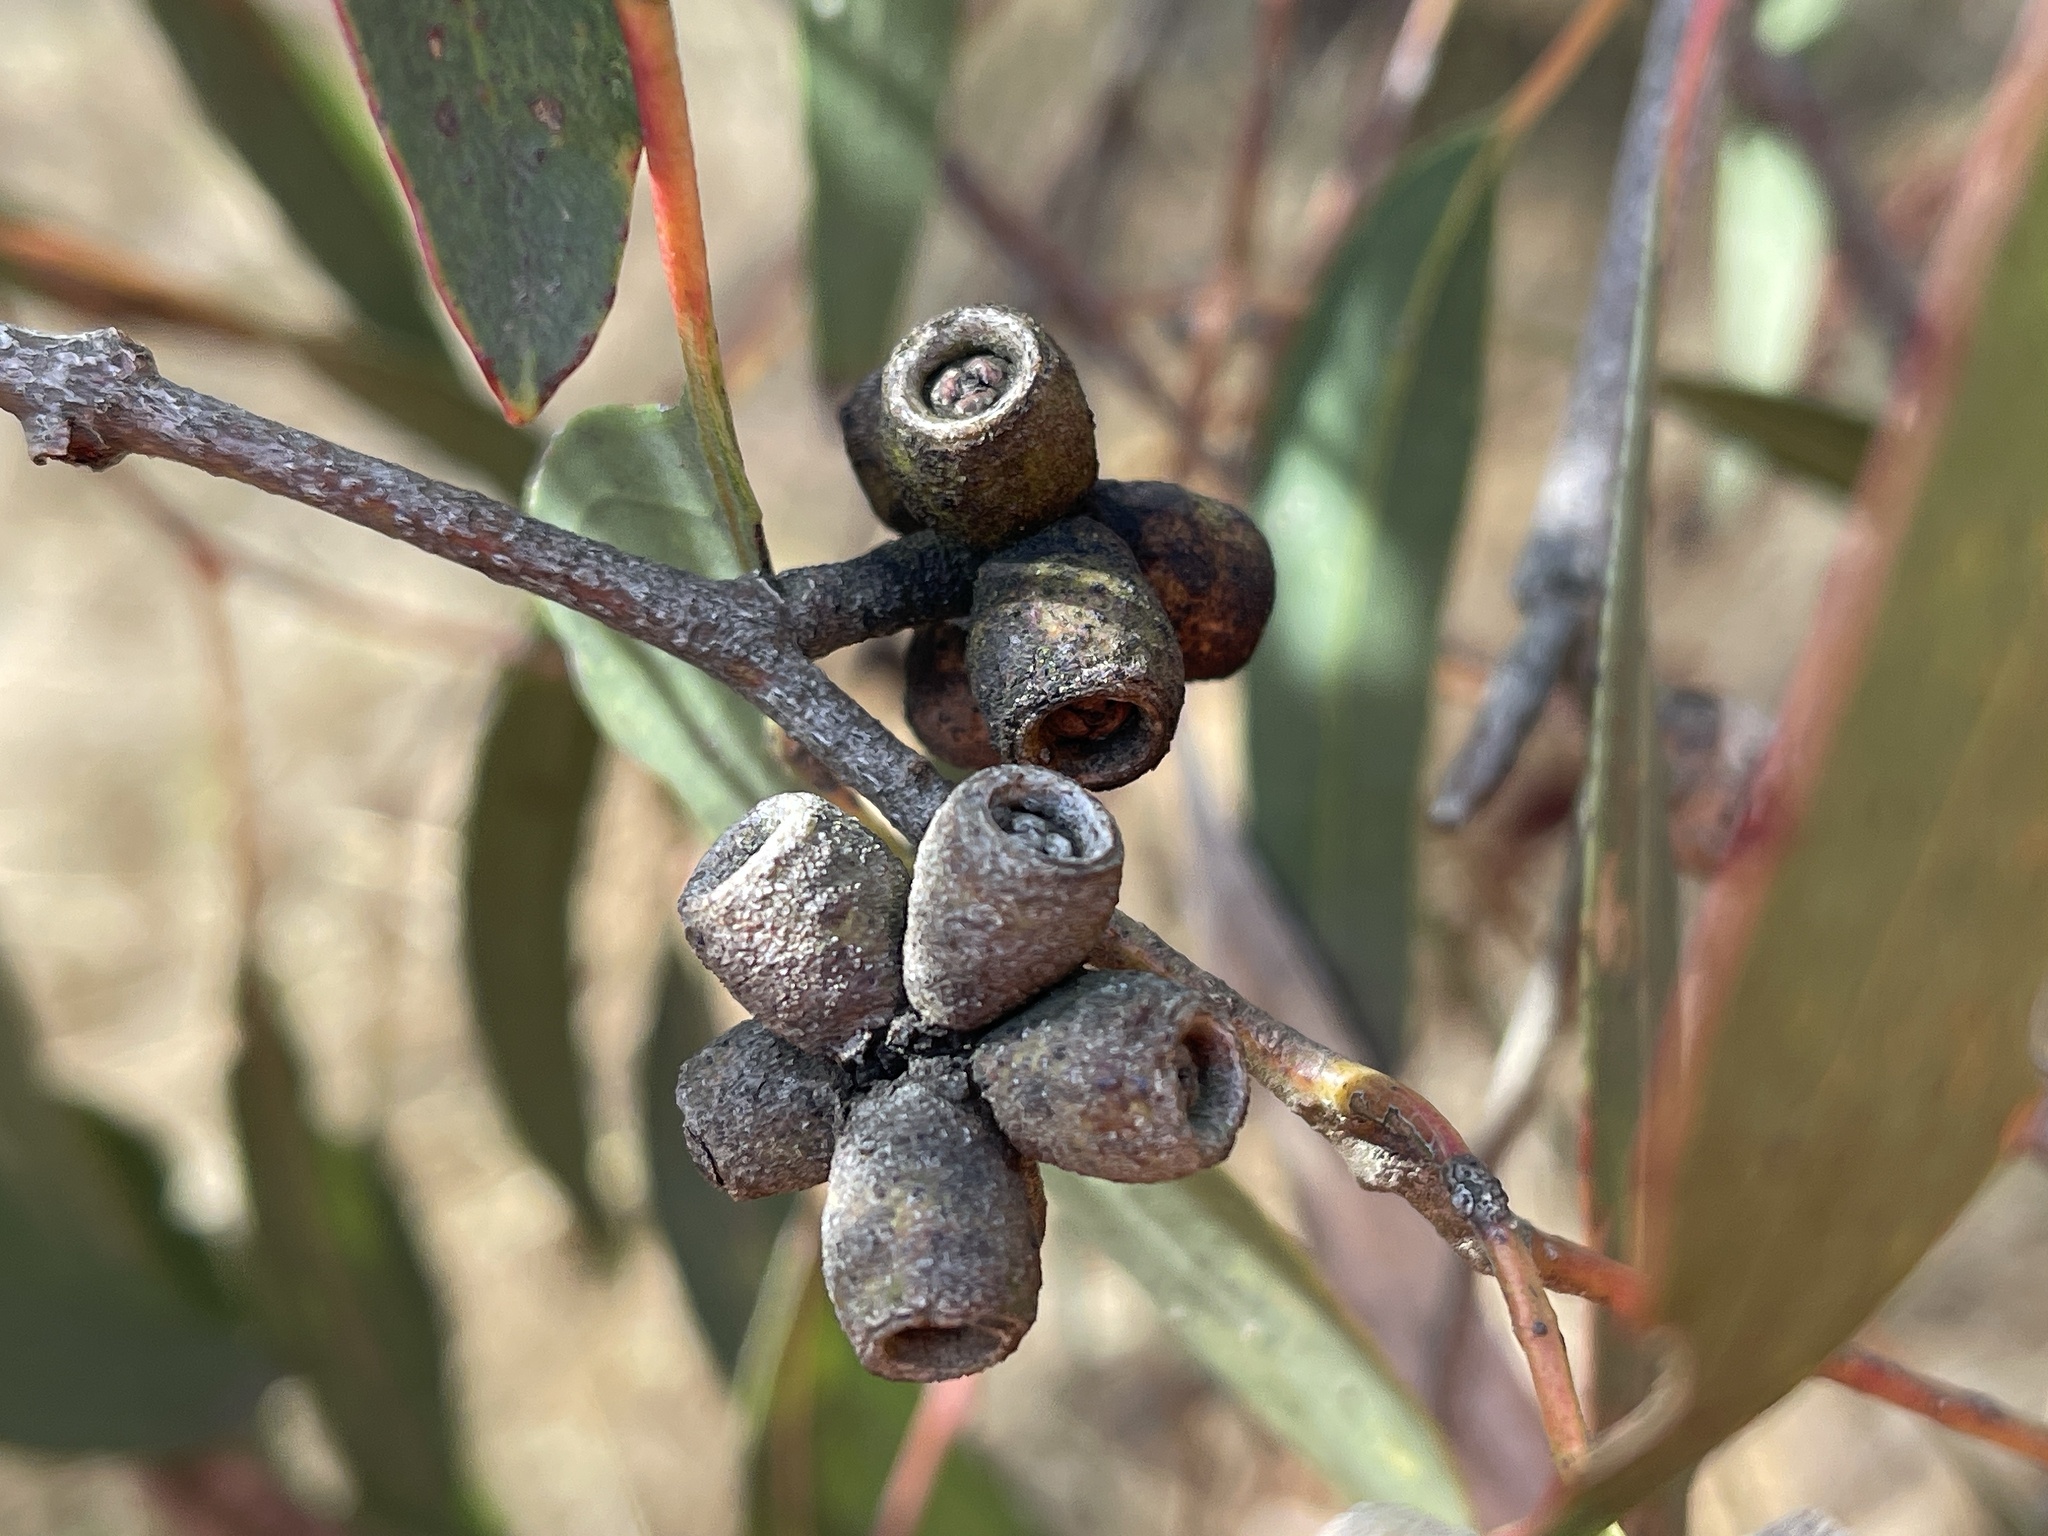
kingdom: Plantae
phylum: Tracheophyta
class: Magnoliopsida
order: Myrtales
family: Myrtaceae
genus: Eucalyptus
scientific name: Eucalyptus goniocalyx
